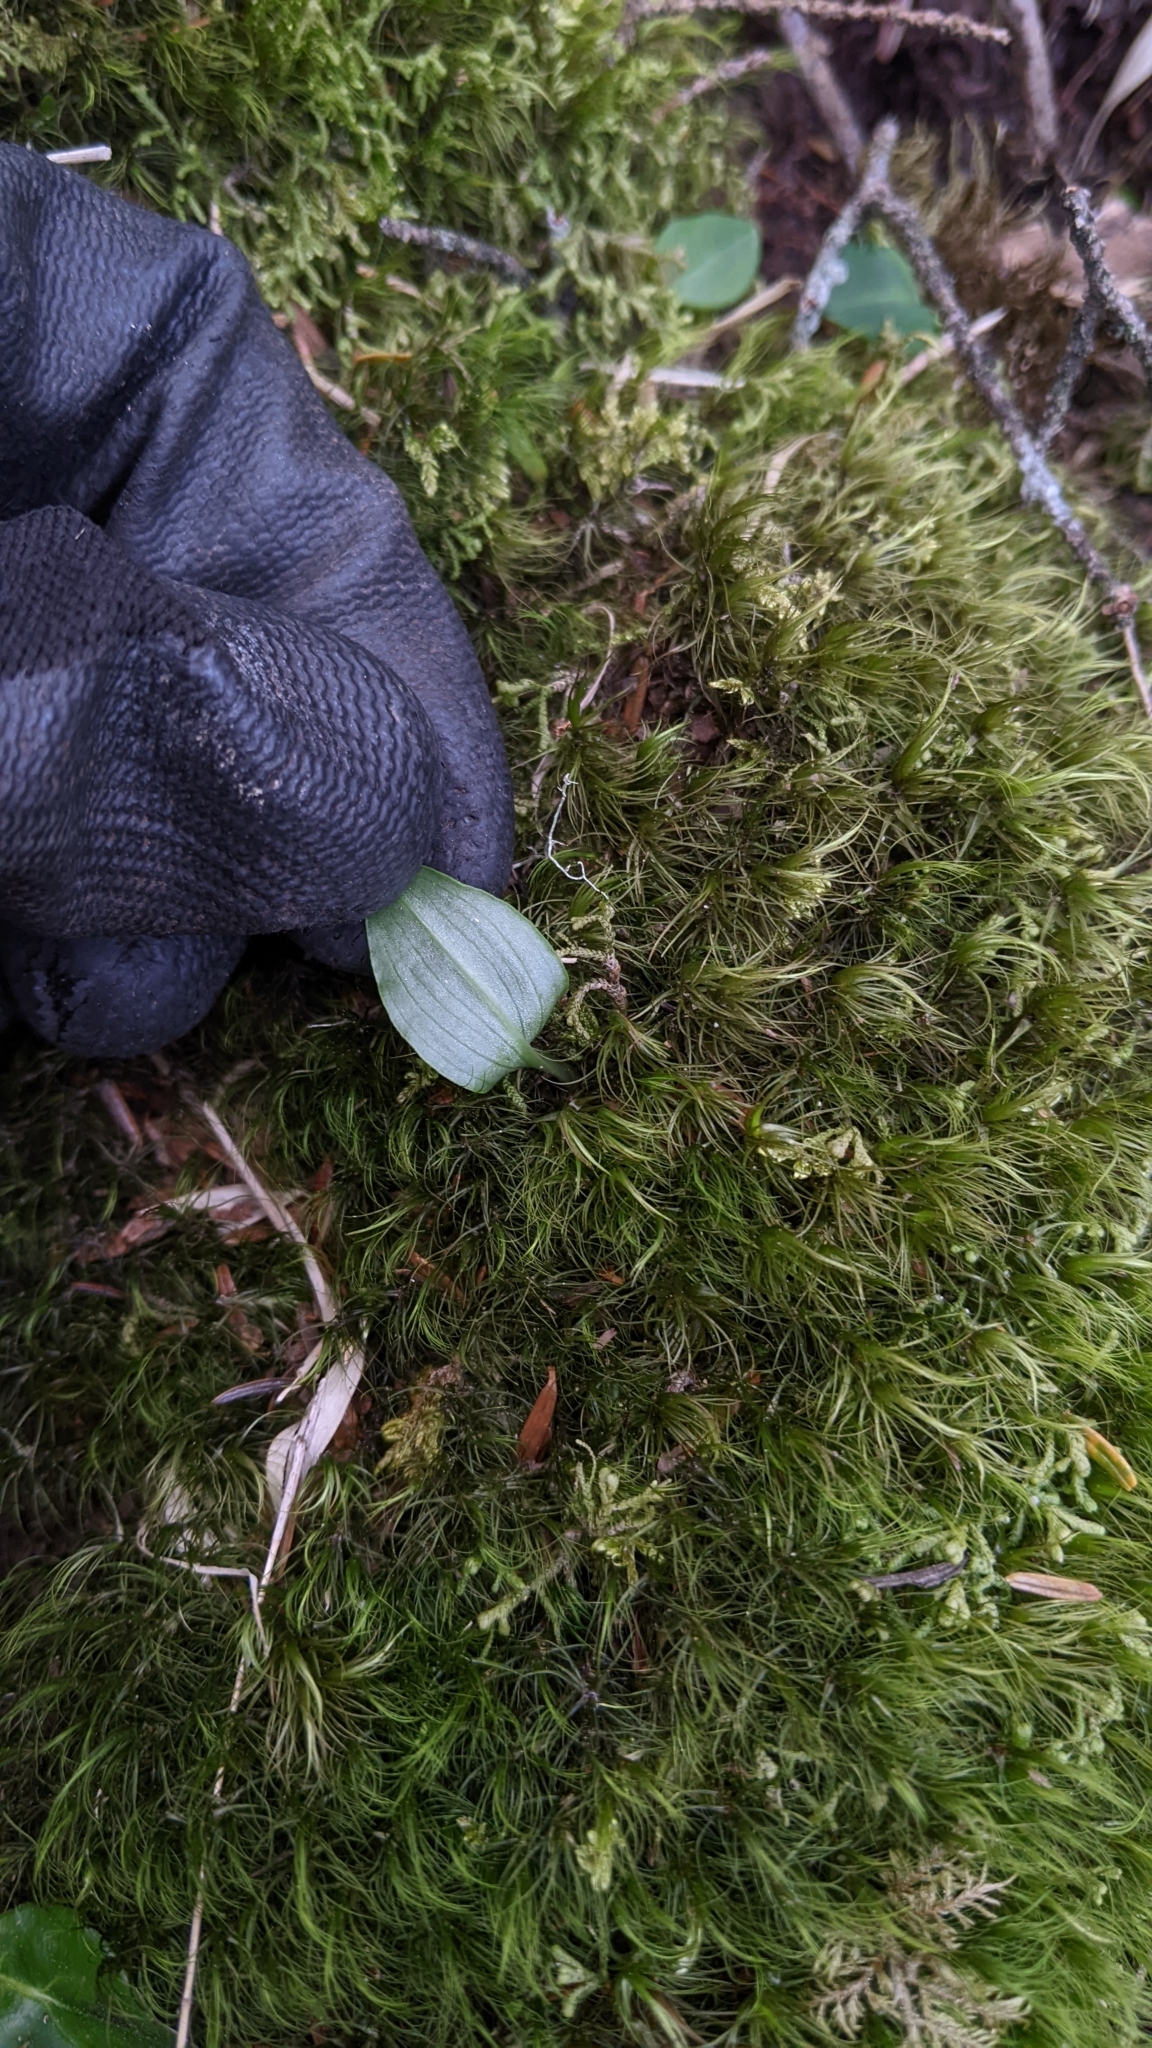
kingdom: Plantae
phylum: Tracheophyta
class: Liliopsida
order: Asparagales
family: Orchidaceae
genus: Platanthera
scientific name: Platanthera brevicalcarata
